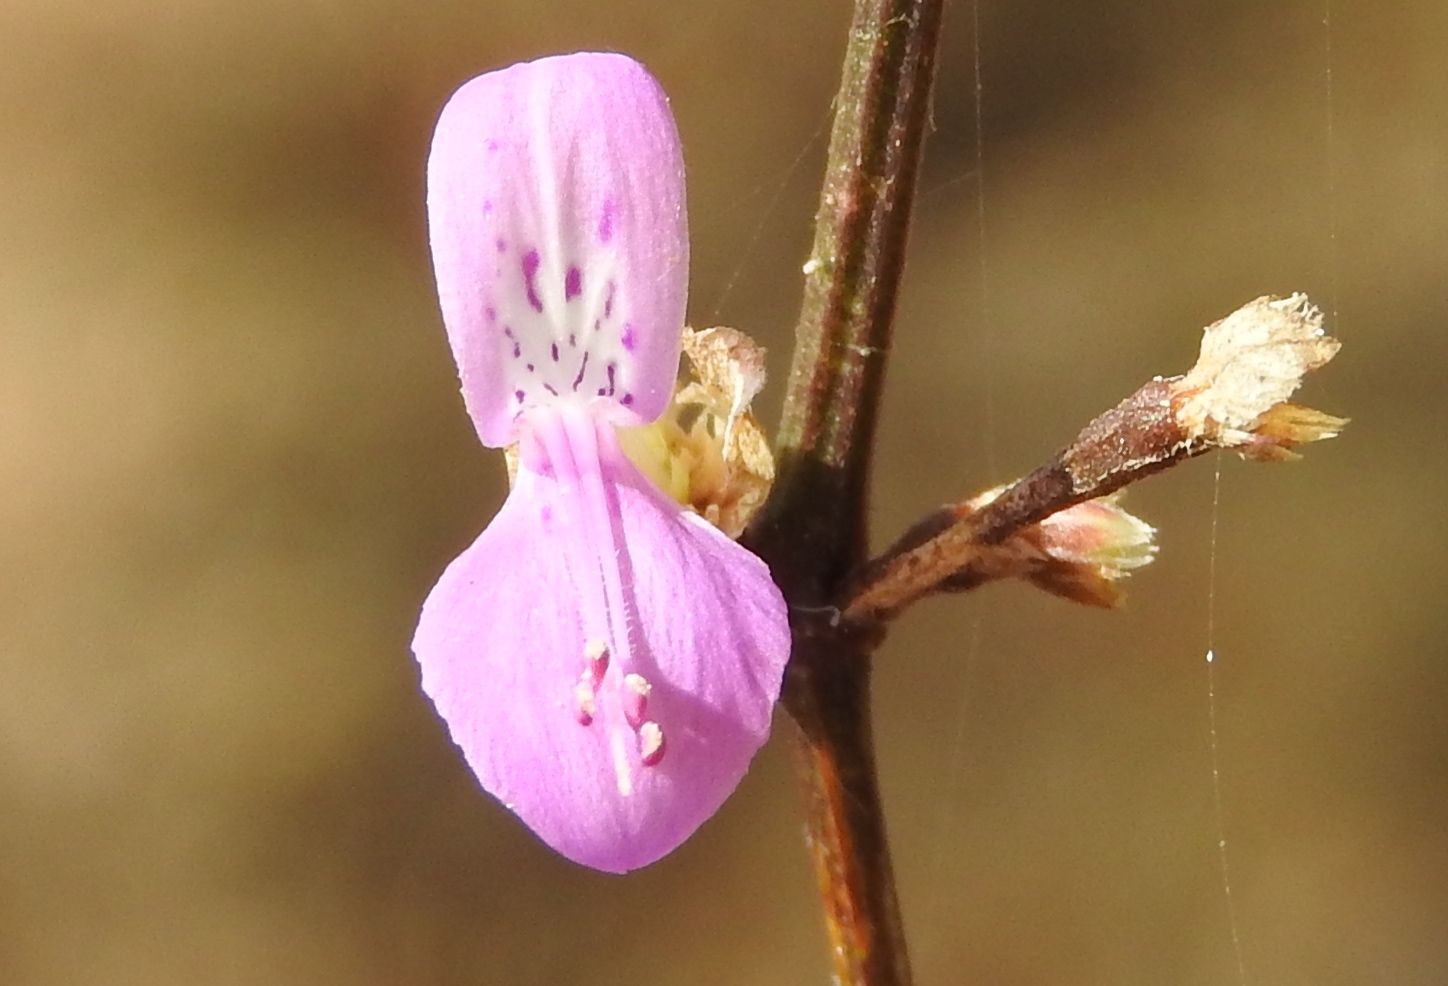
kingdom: Plantae
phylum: Tracheophyta
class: Magnoliopsida
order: Lamiales
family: Acanthaceae
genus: Dicliptera
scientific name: Dicliptera resupinata
